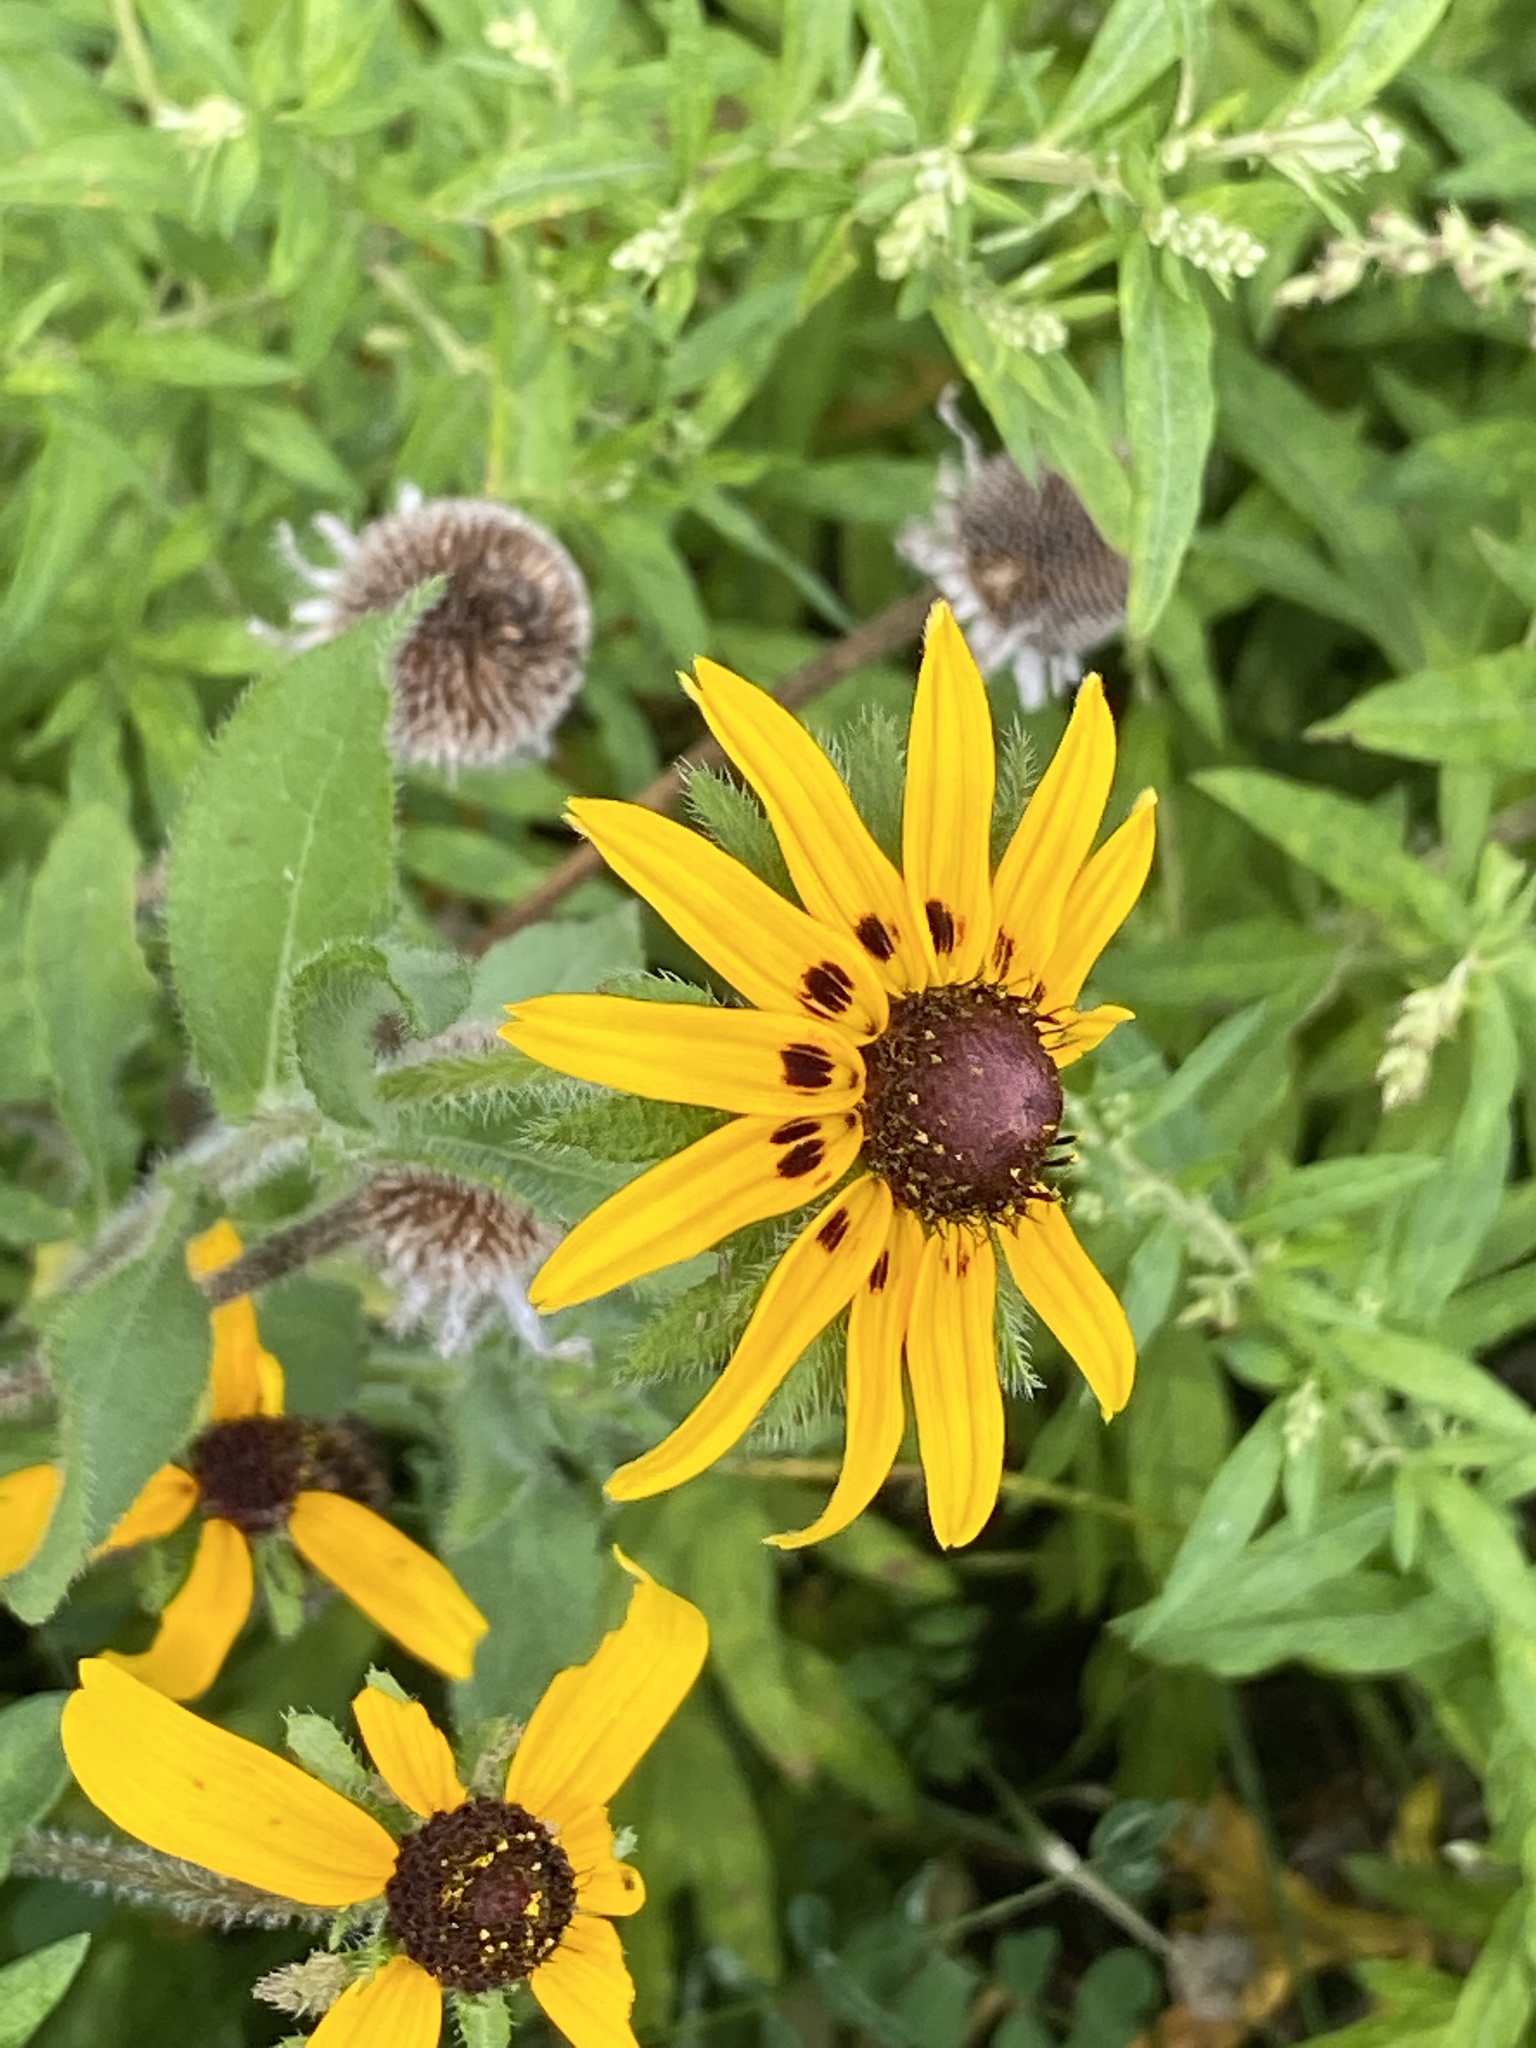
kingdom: Plantae
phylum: Tracheophyta
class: Magnoliopsida
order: Asterales
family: Asteraceae
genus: Rudbeckia
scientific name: Rudbeckia hirta
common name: Black-eyed-susan
